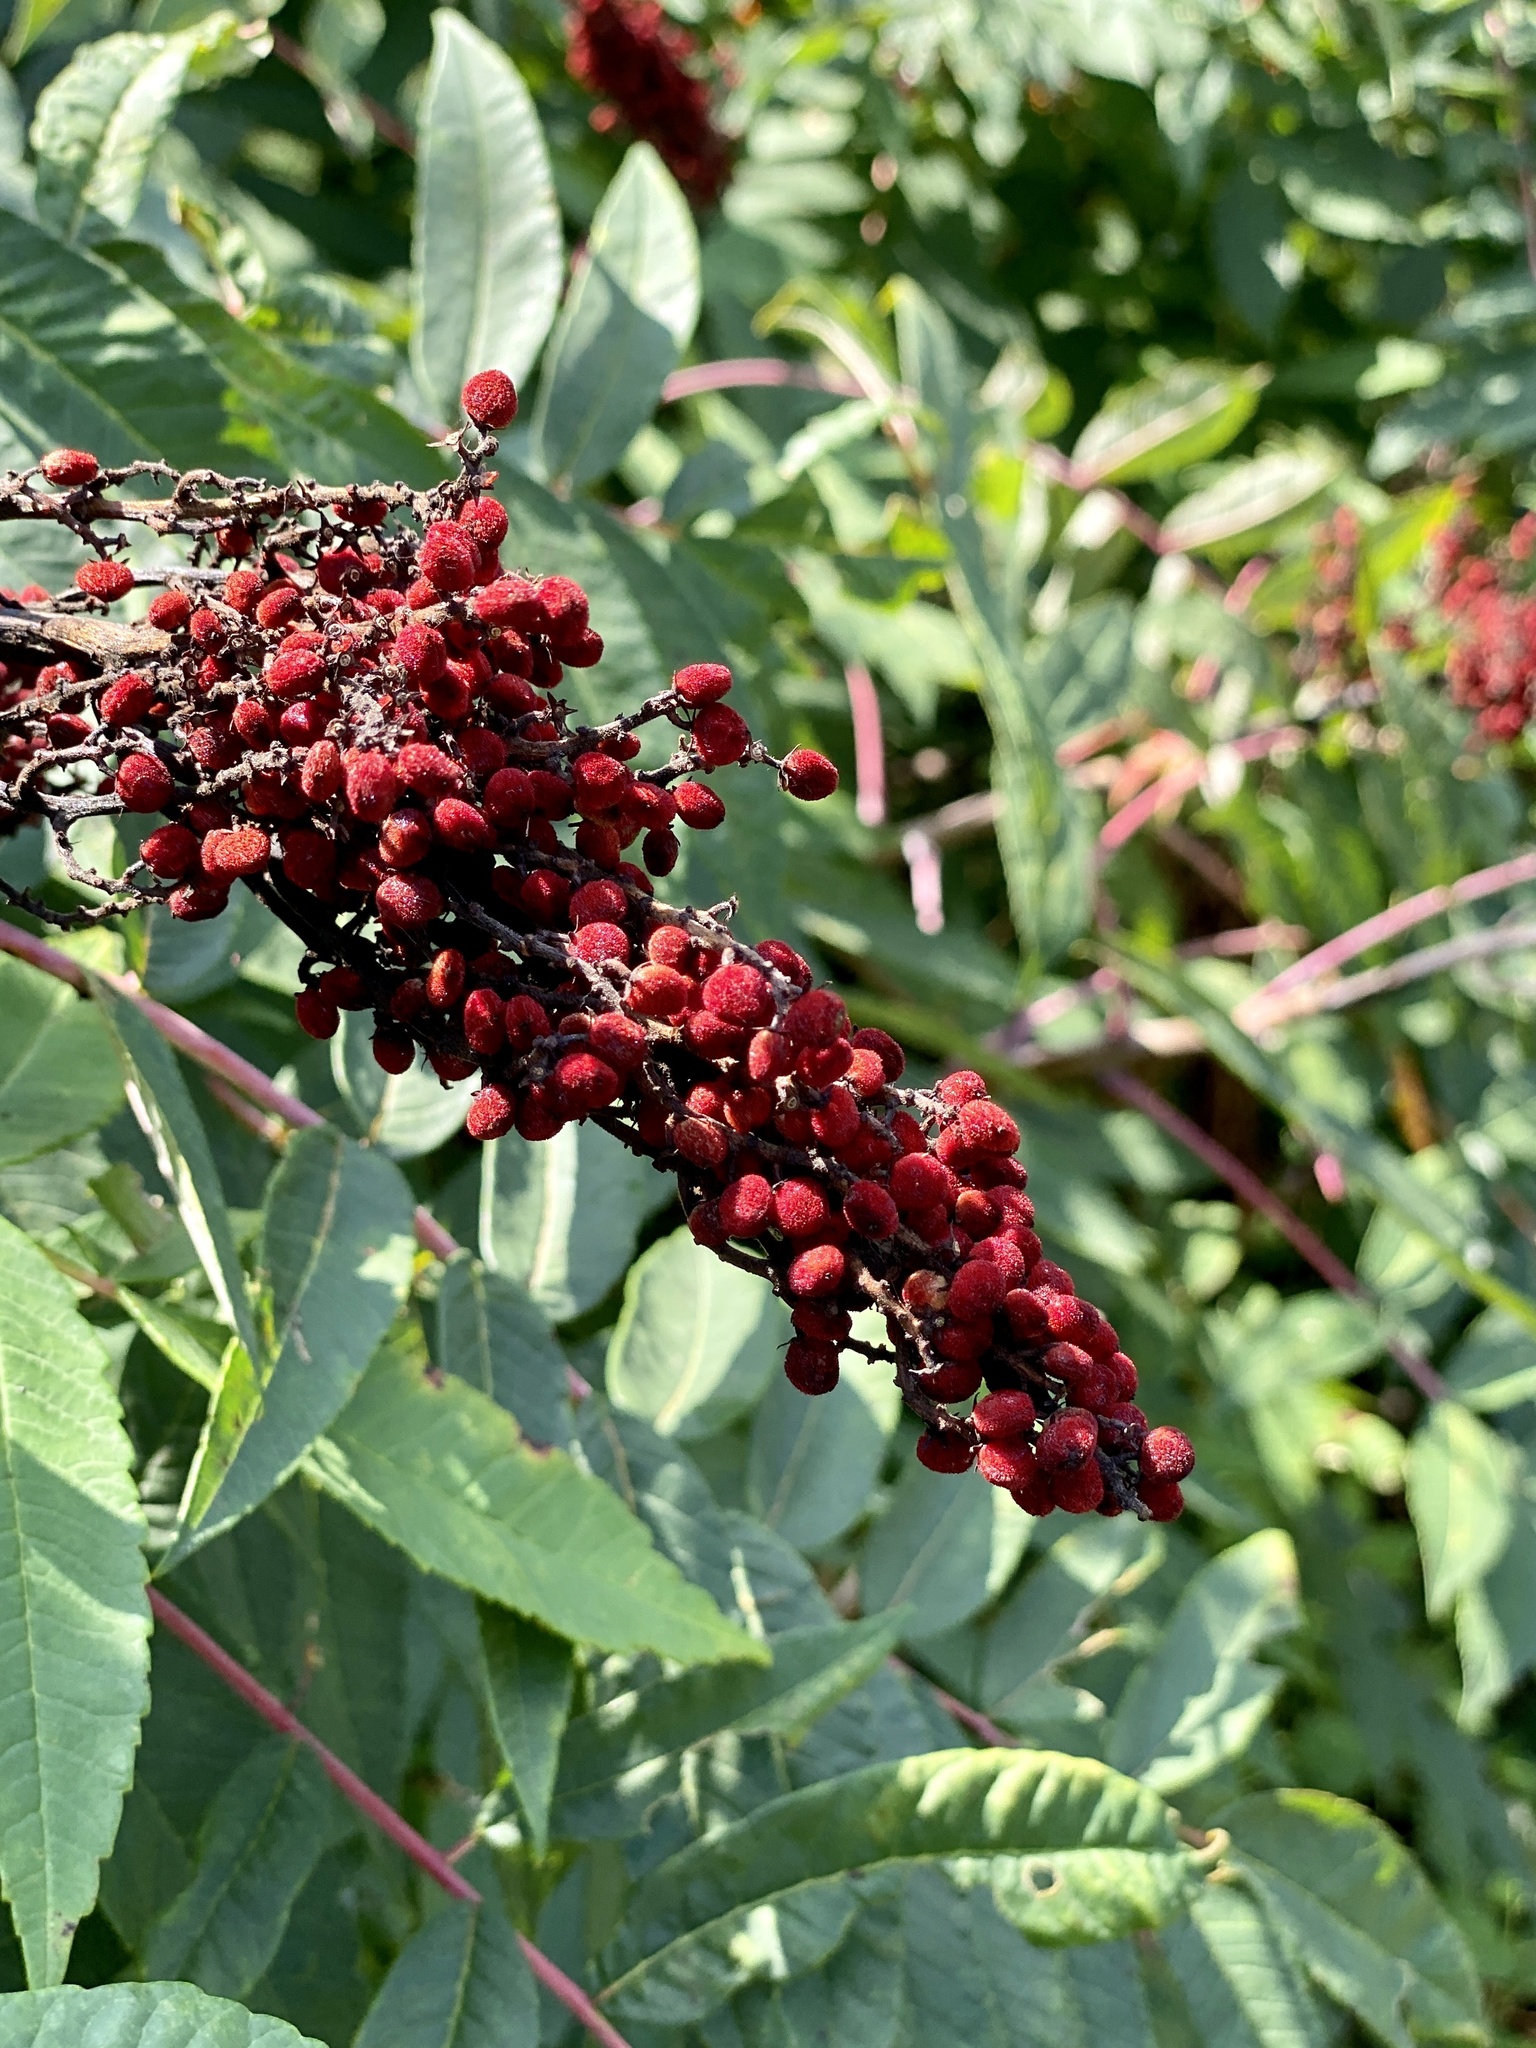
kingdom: Plantae
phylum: Tracheophyta
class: Magnoliopsida
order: Sapindales
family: Anacardiaceae
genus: Rhus
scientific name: Rhus glabra
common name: Scarlet sumac
